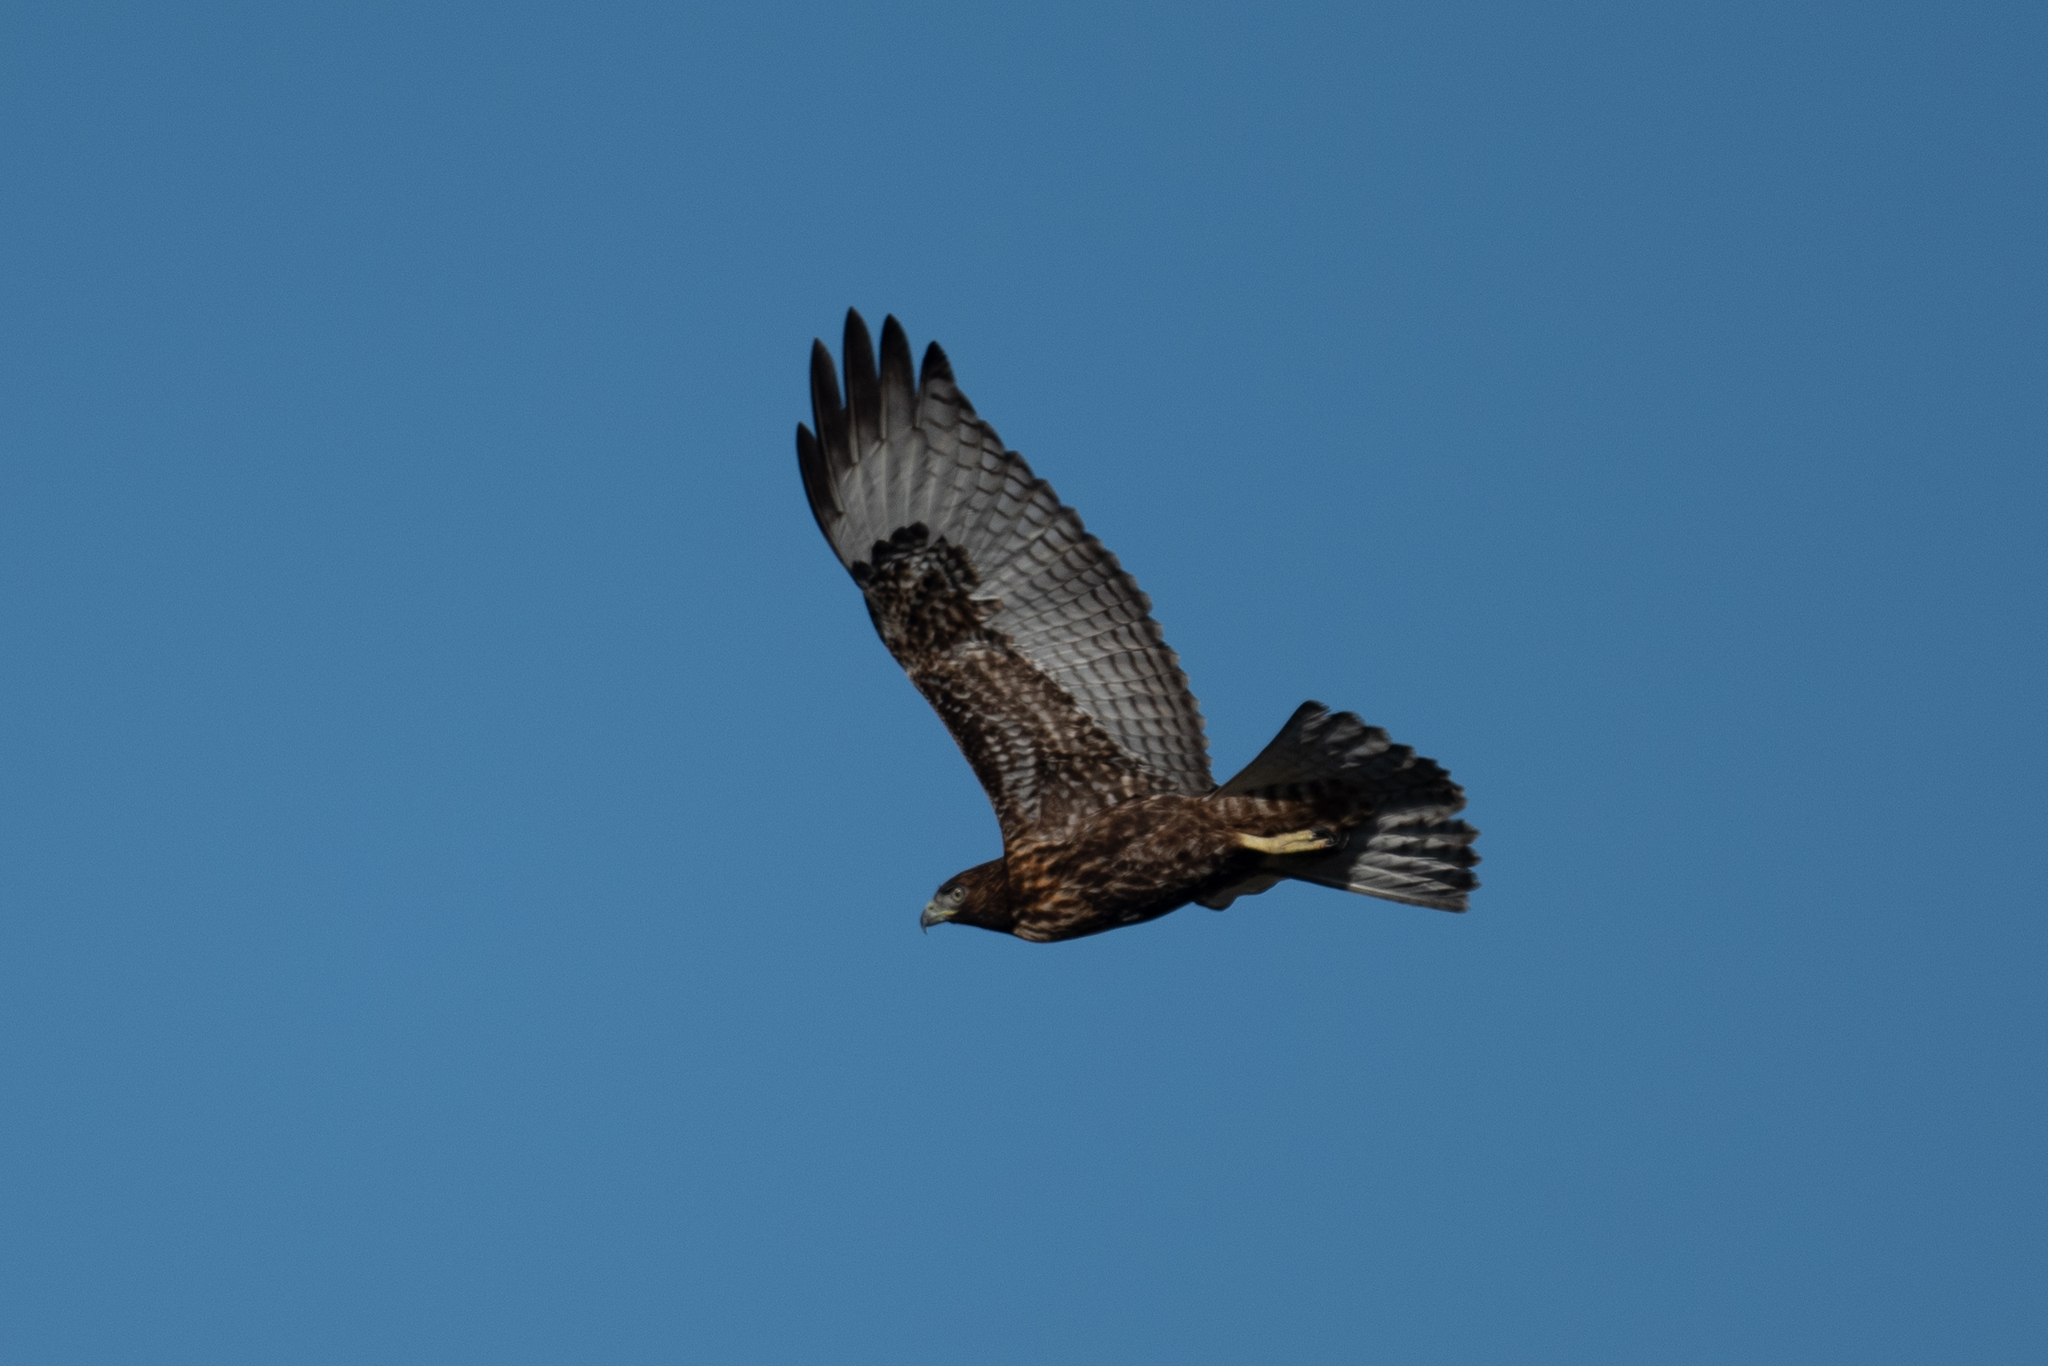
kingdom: Animalia
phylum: Chordata
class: Aves
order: Accipitriformes
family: Accipitridae
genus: Buteo
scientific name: Buteo jamaicensis
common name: Red-tailed hawk
